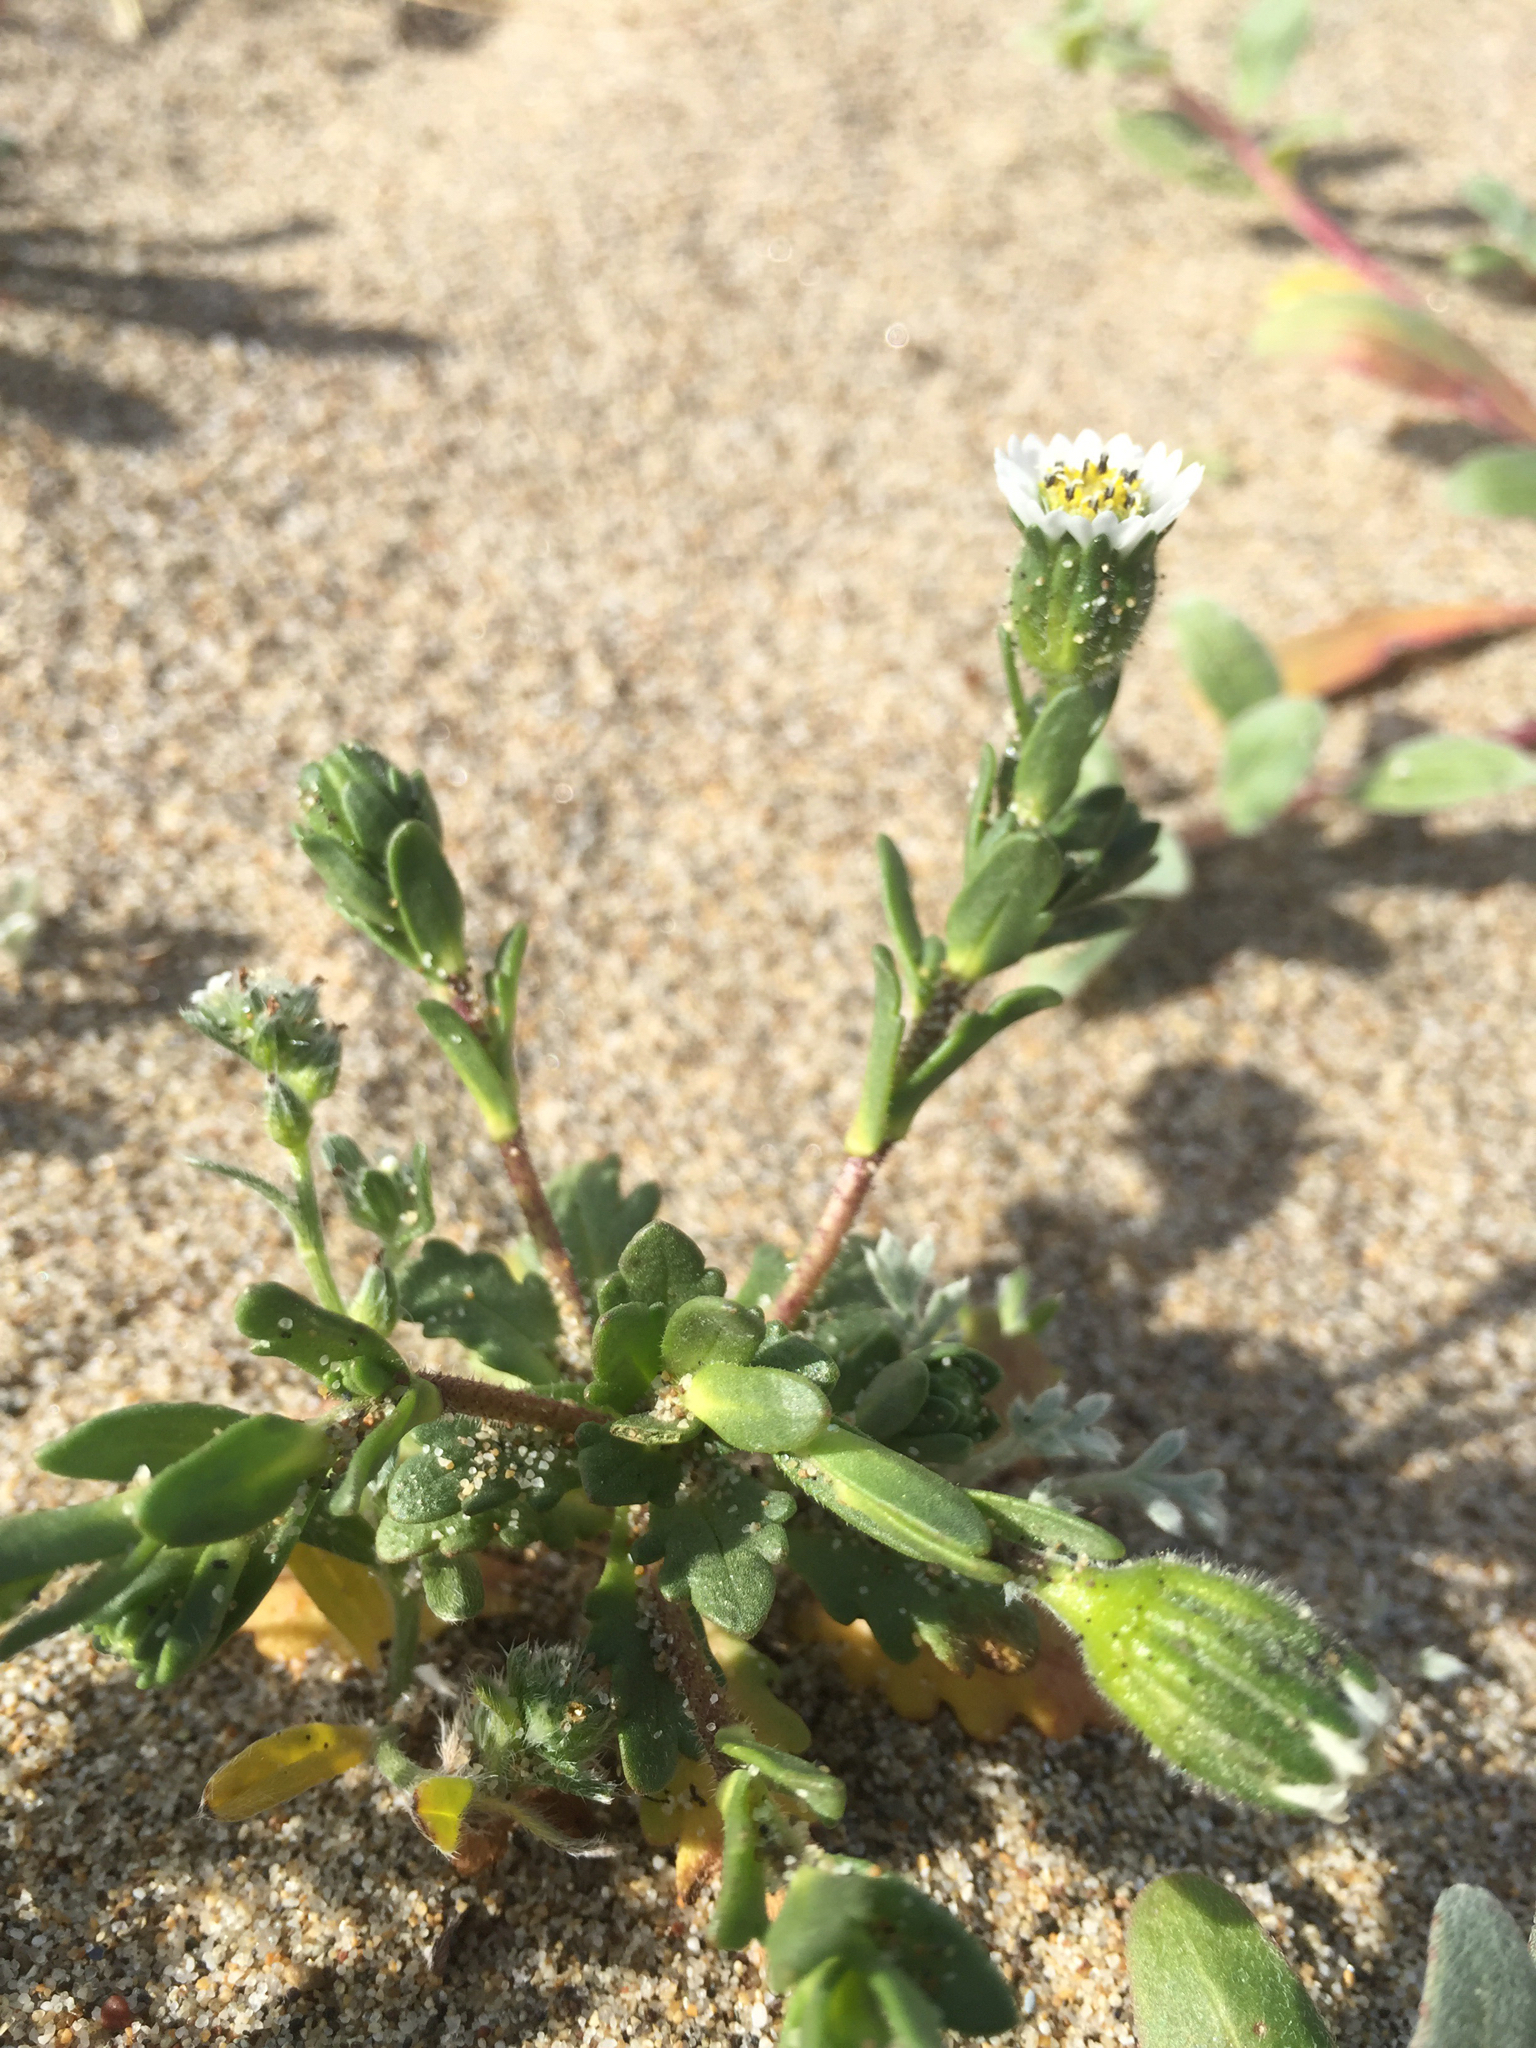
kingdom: Plantae
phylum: Tracheophyta
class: Magnoliopsida
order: Asterales
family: Asteraceae
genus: Layia
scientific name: Layia carnosa
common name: Beach layia
